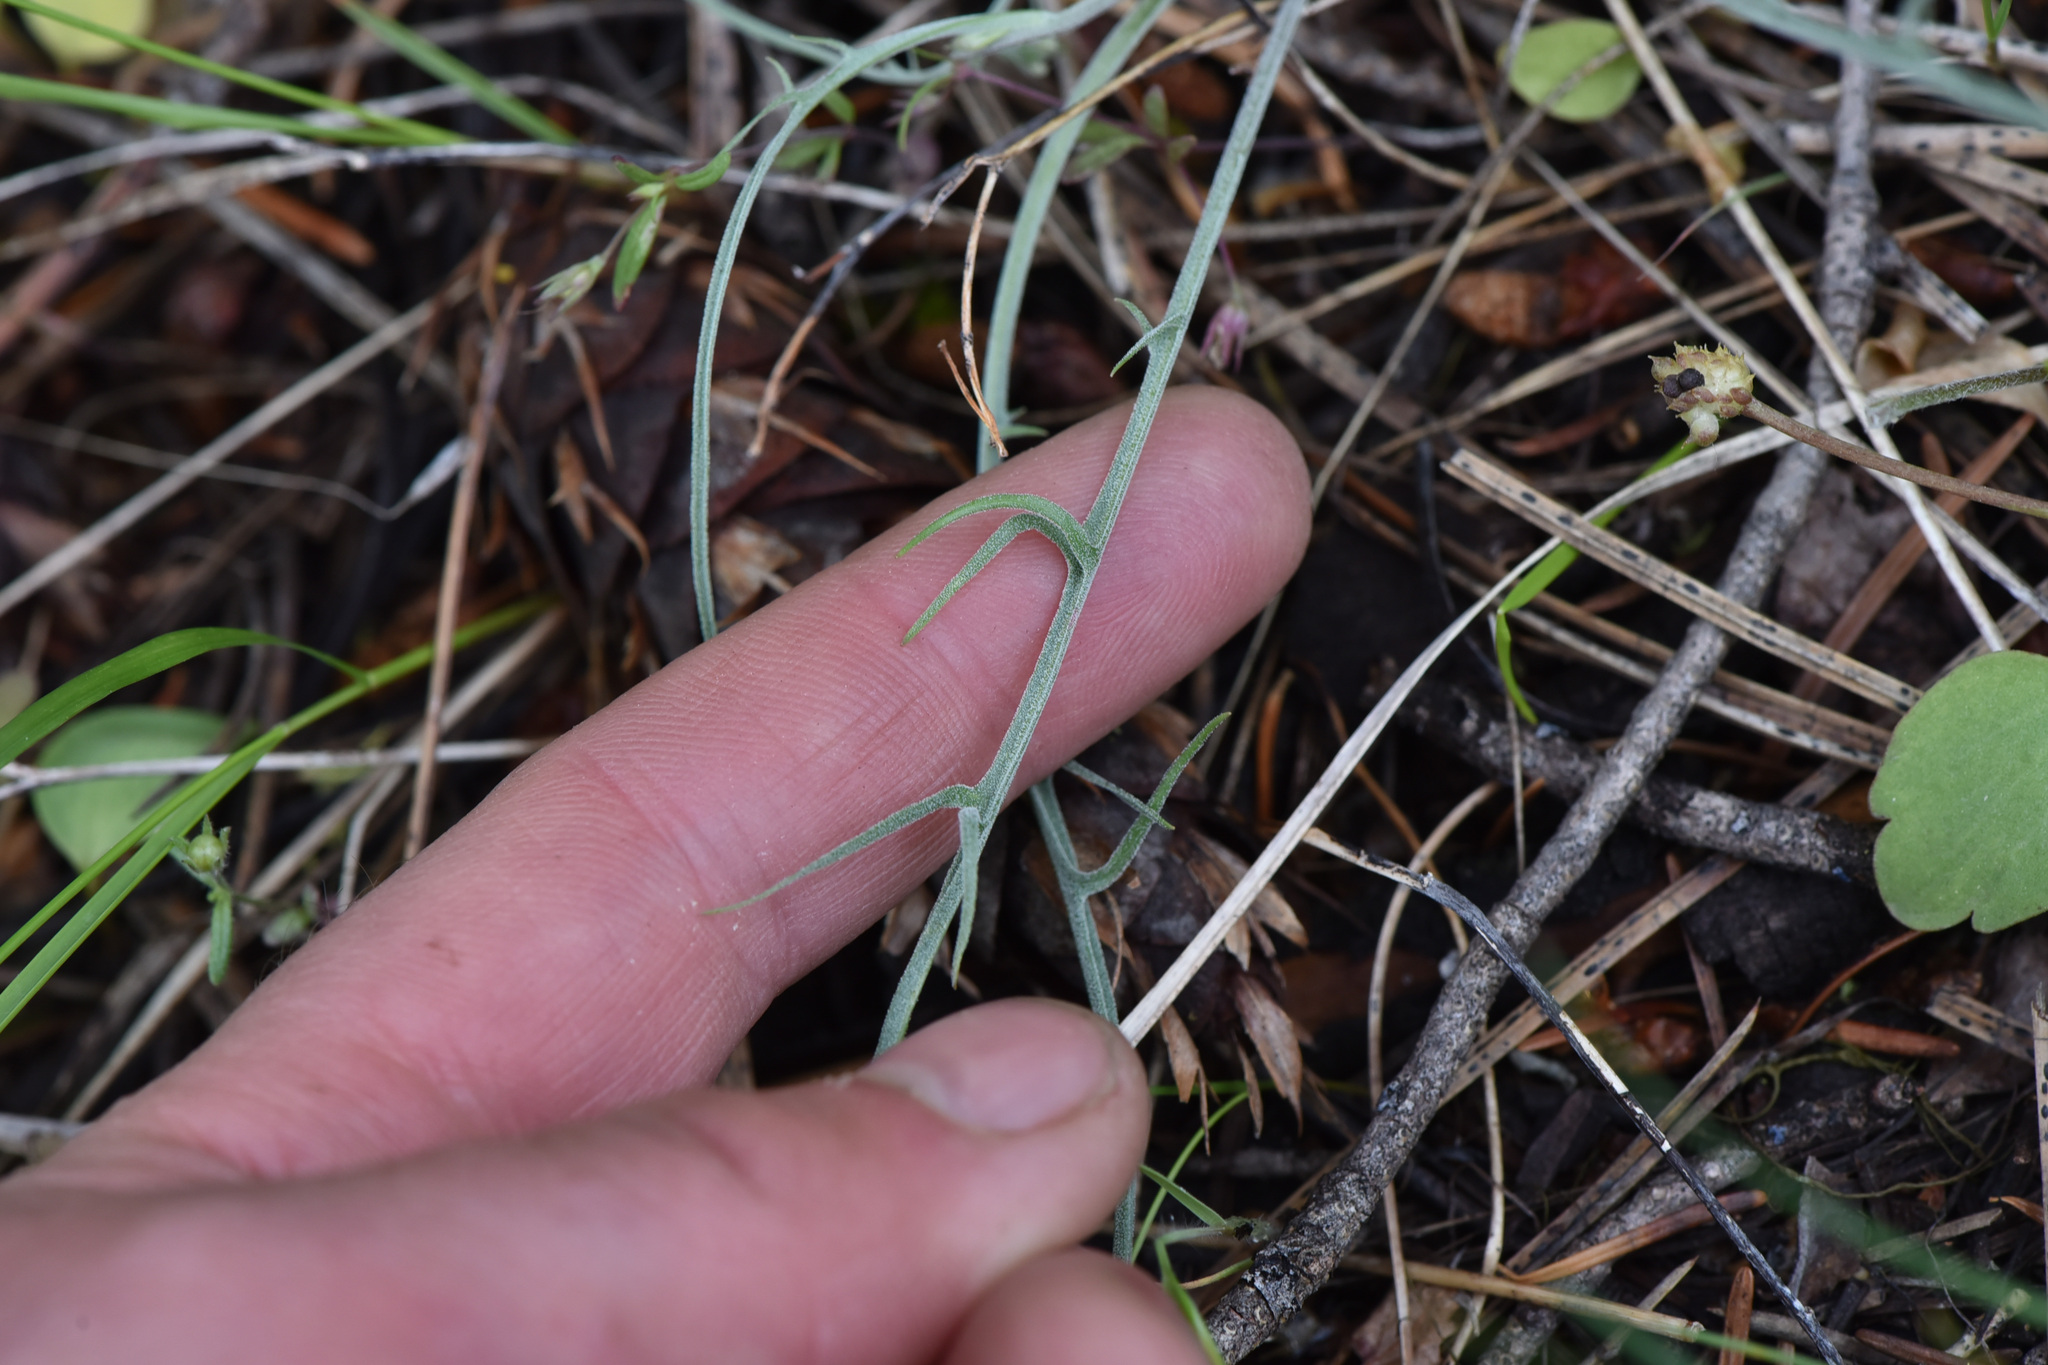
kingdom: Plantae
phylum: Tracheophyta
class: Magnoliopsida
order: Asterales
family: Asteraceae
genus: Crepis
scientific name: Crepis atribarba
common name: Dark hawk's-beard
